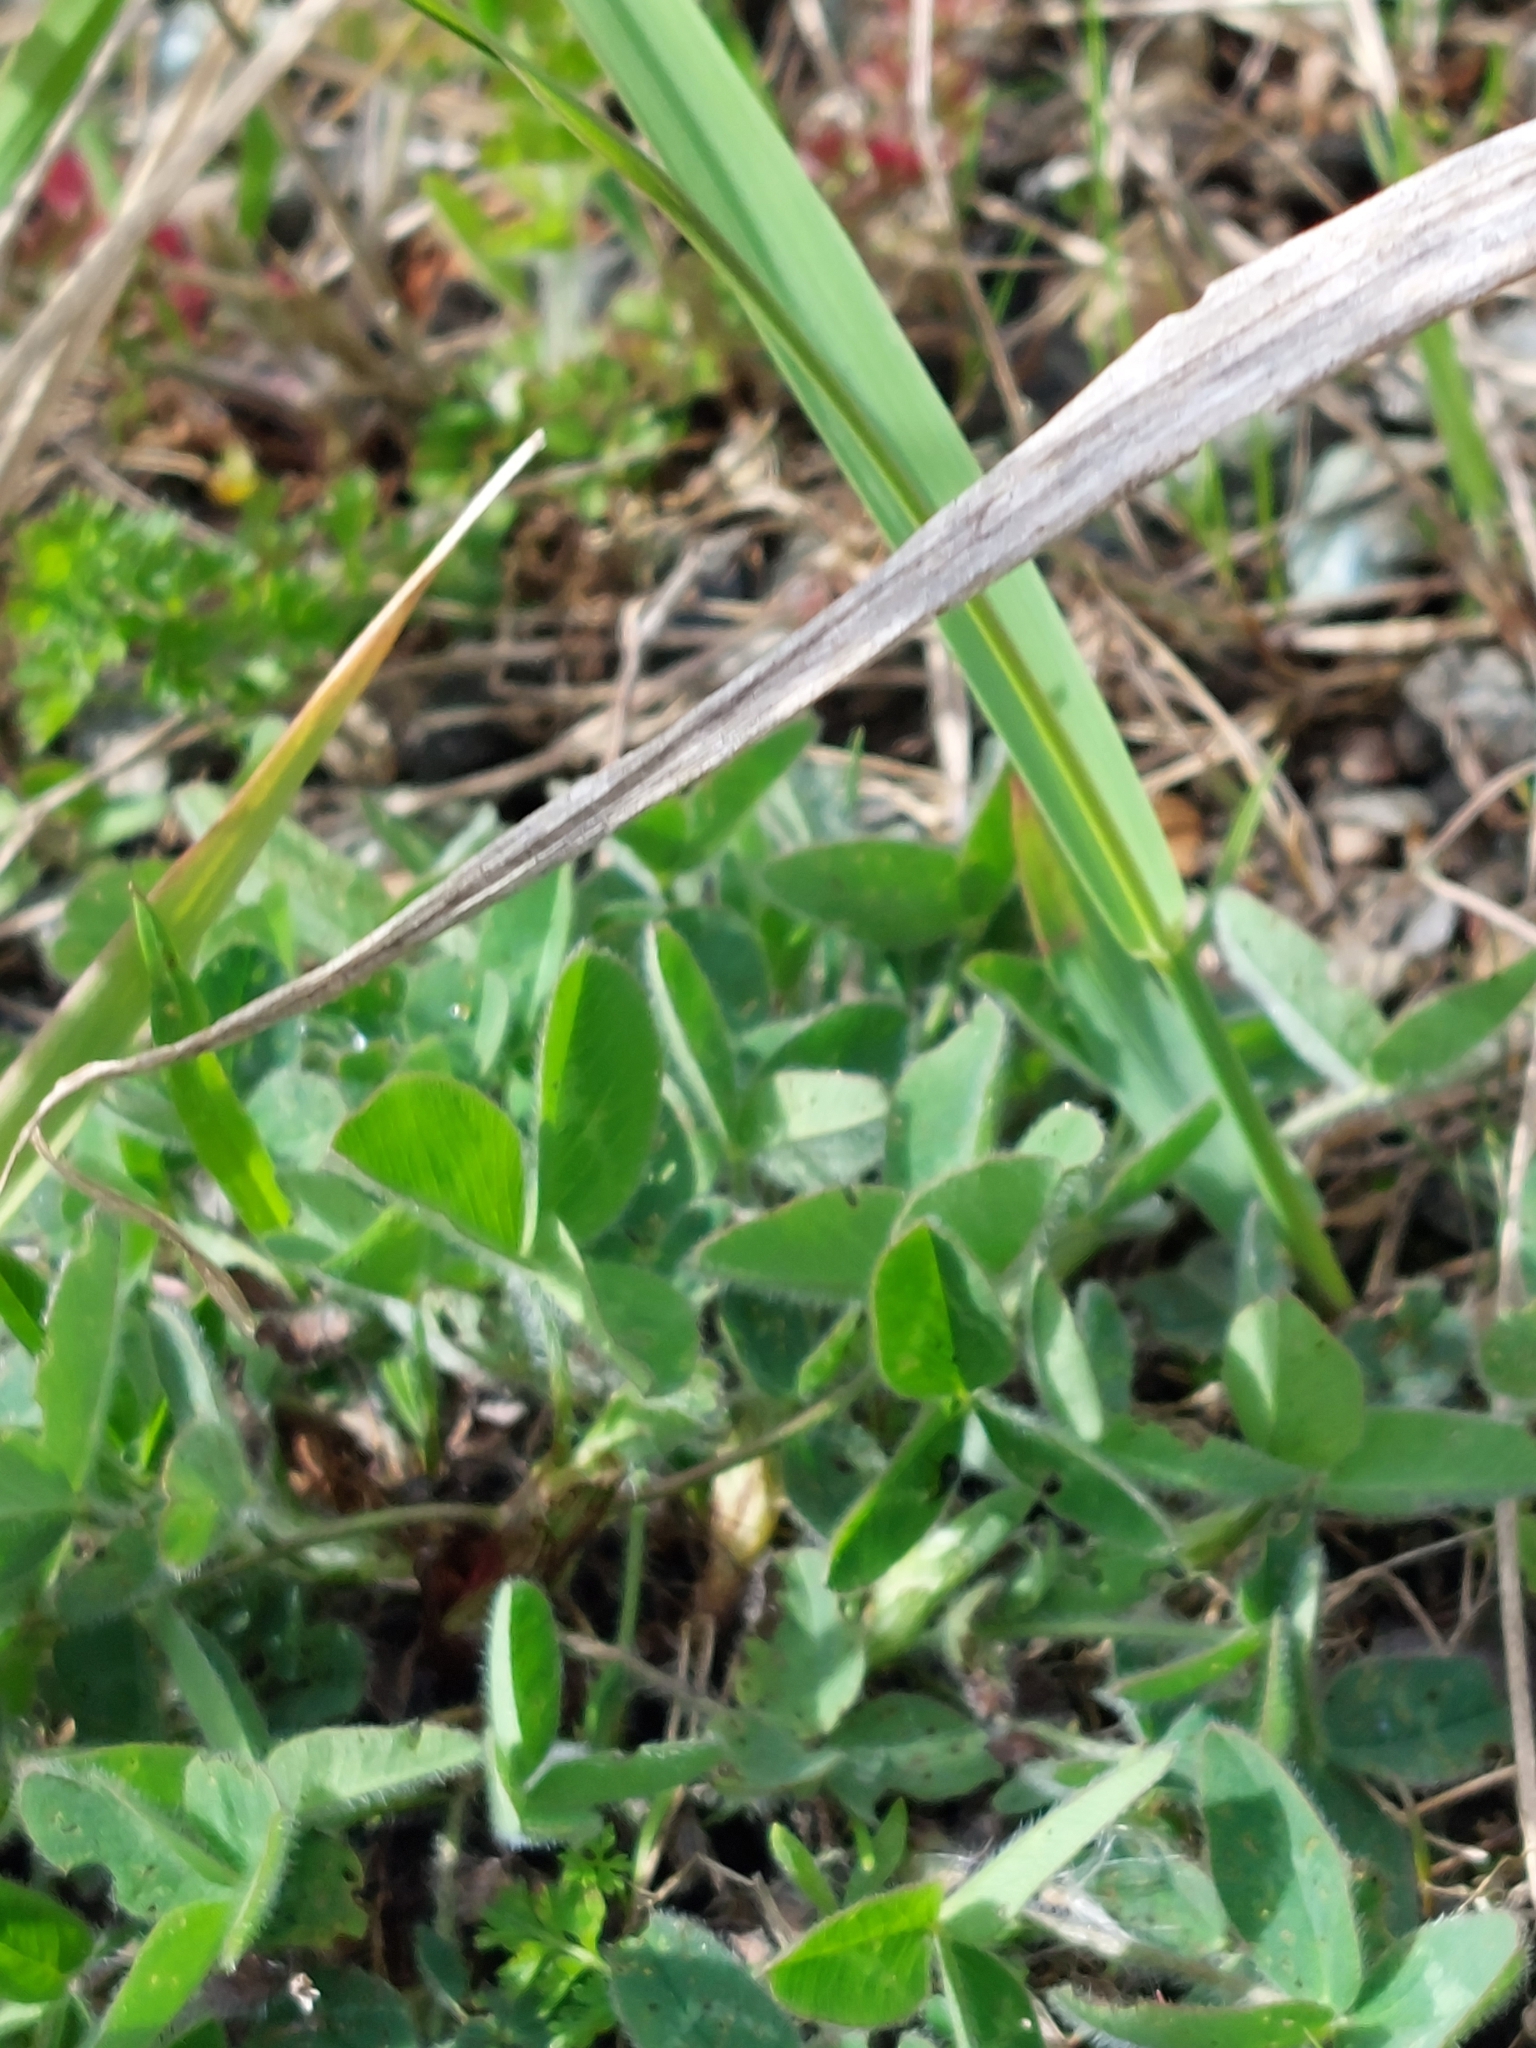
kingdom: Plantae
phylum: Tracheophyta
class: Magnoliopsida
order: Fabales
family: Fabaceae
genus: Trifolium
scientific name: Trifolium pratense
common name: Red clover
